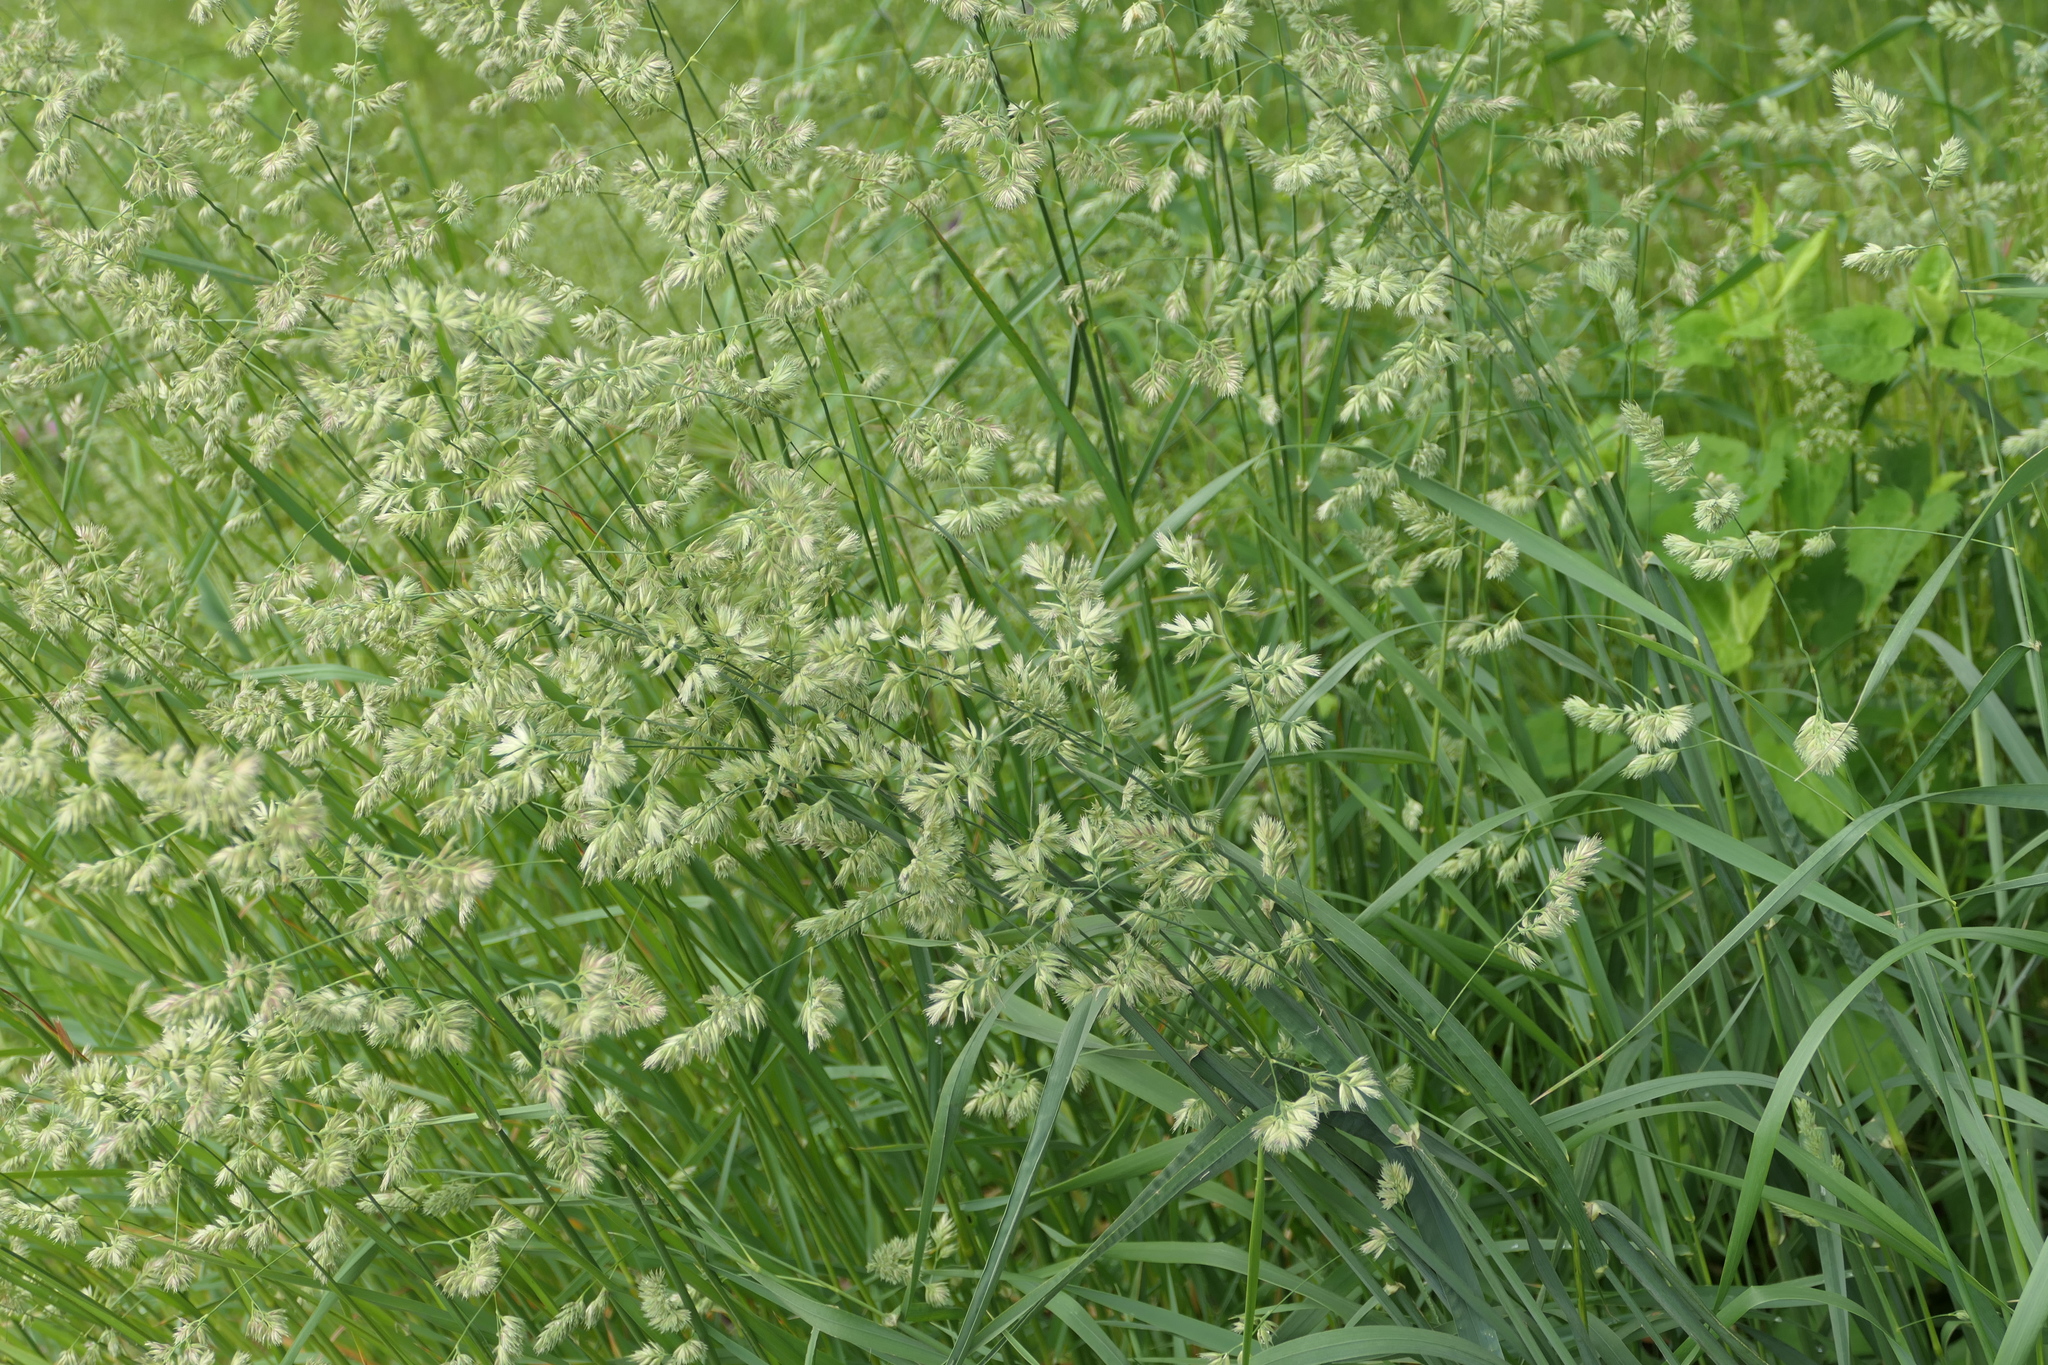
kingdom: Plantae
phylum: Tracheophyta
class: Liliopsida
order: Poales
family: Poaceae
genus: Dactylis
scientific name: Dactylis glomerata
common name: Orchardgrass
